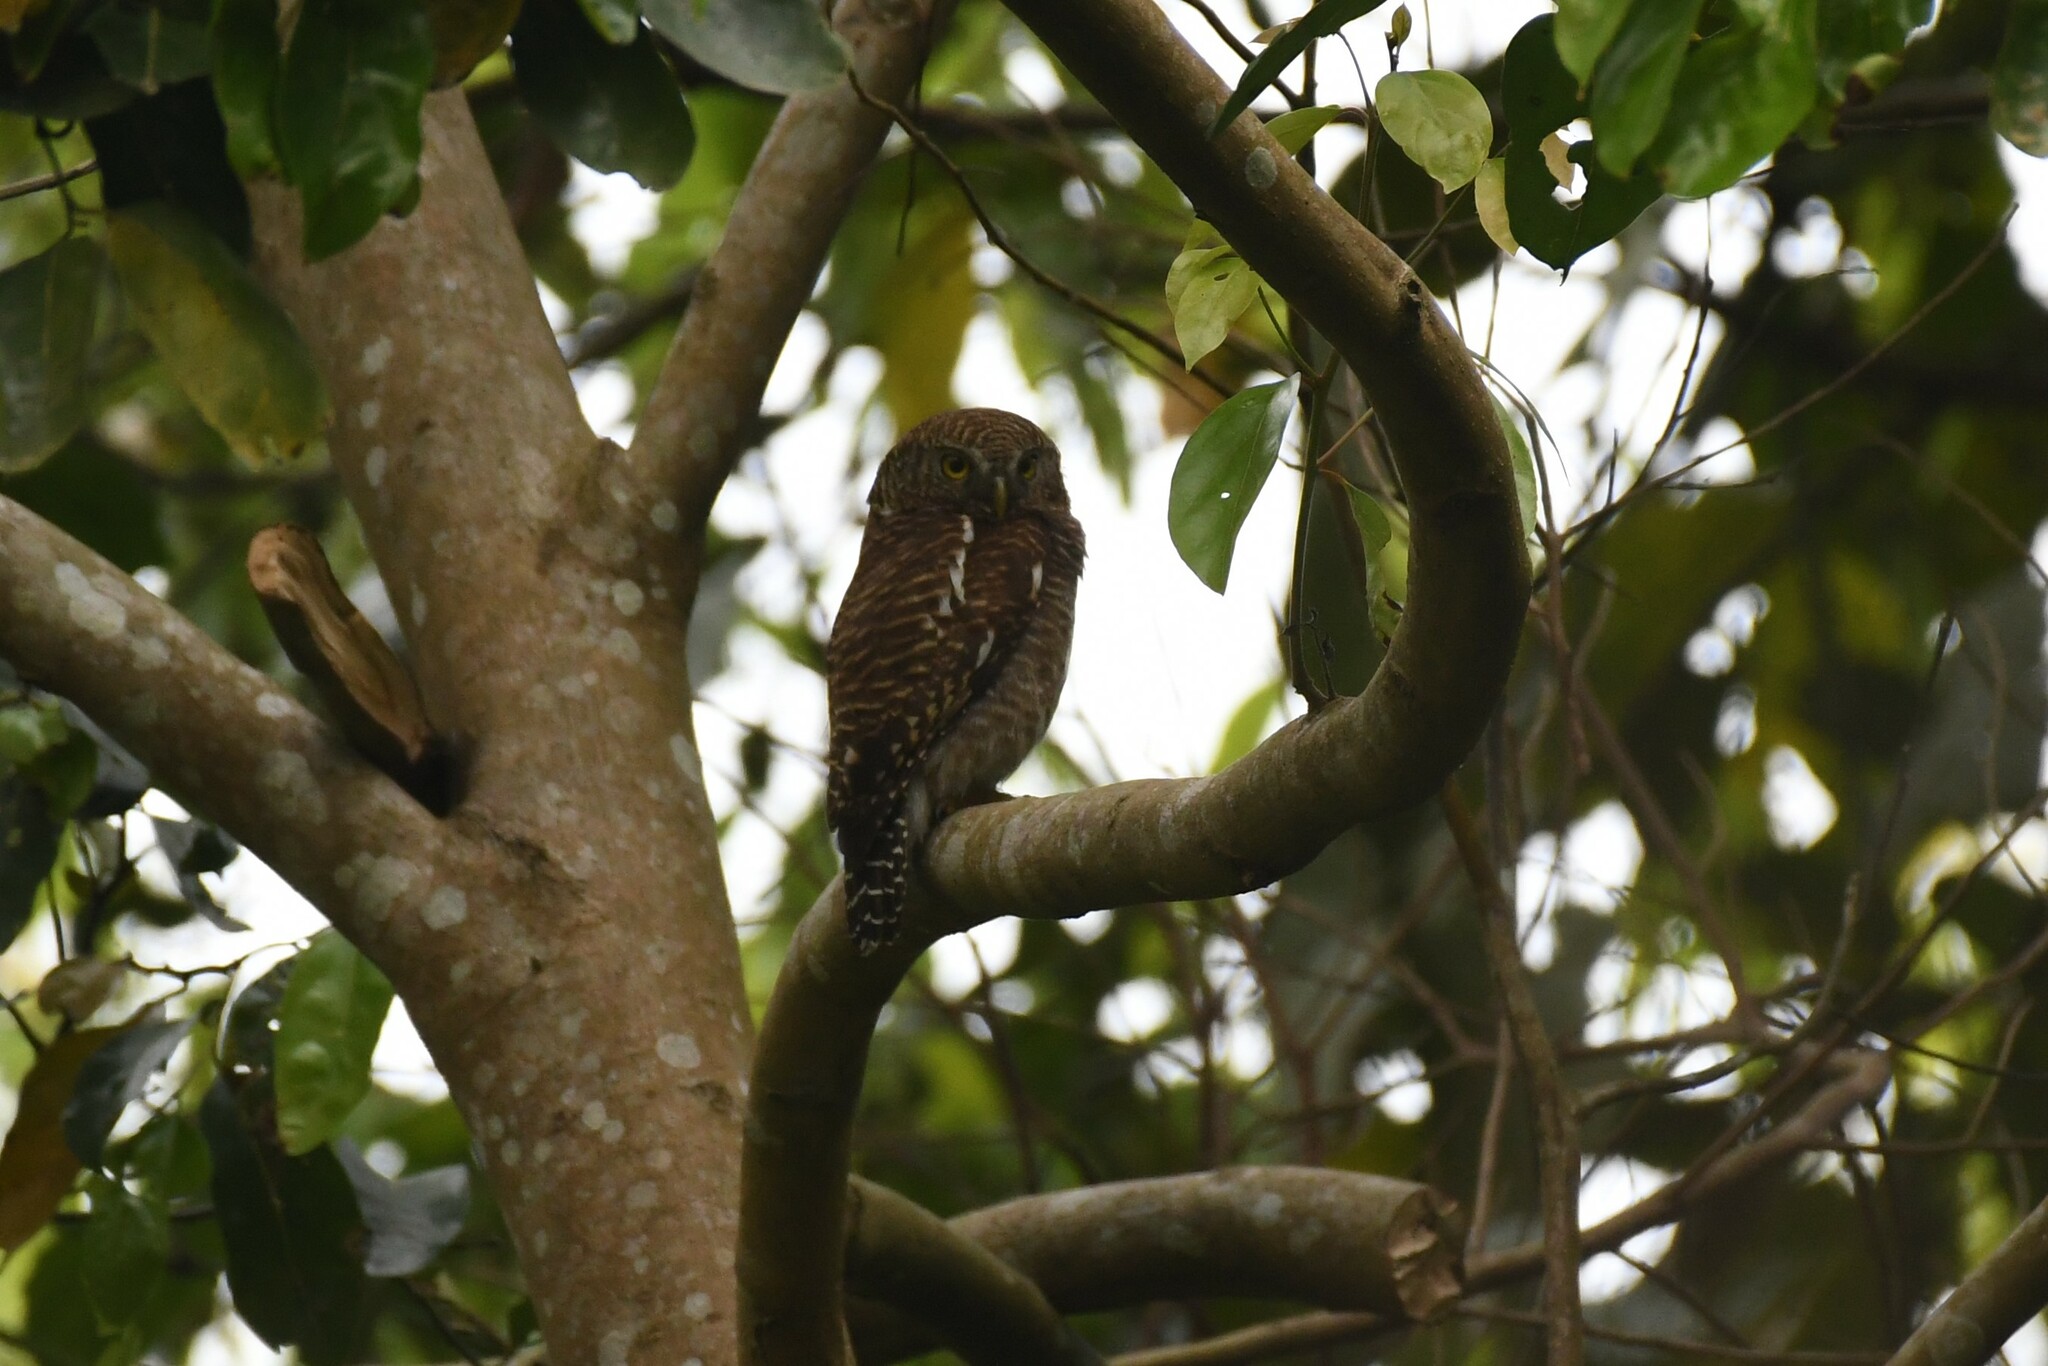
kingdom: Animalia
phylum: Chordata
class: Aves
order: Strigiformes
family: Strigidae
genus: Glaucidium
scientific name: Glaucidium cuculoides
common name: Asian barred owlet
